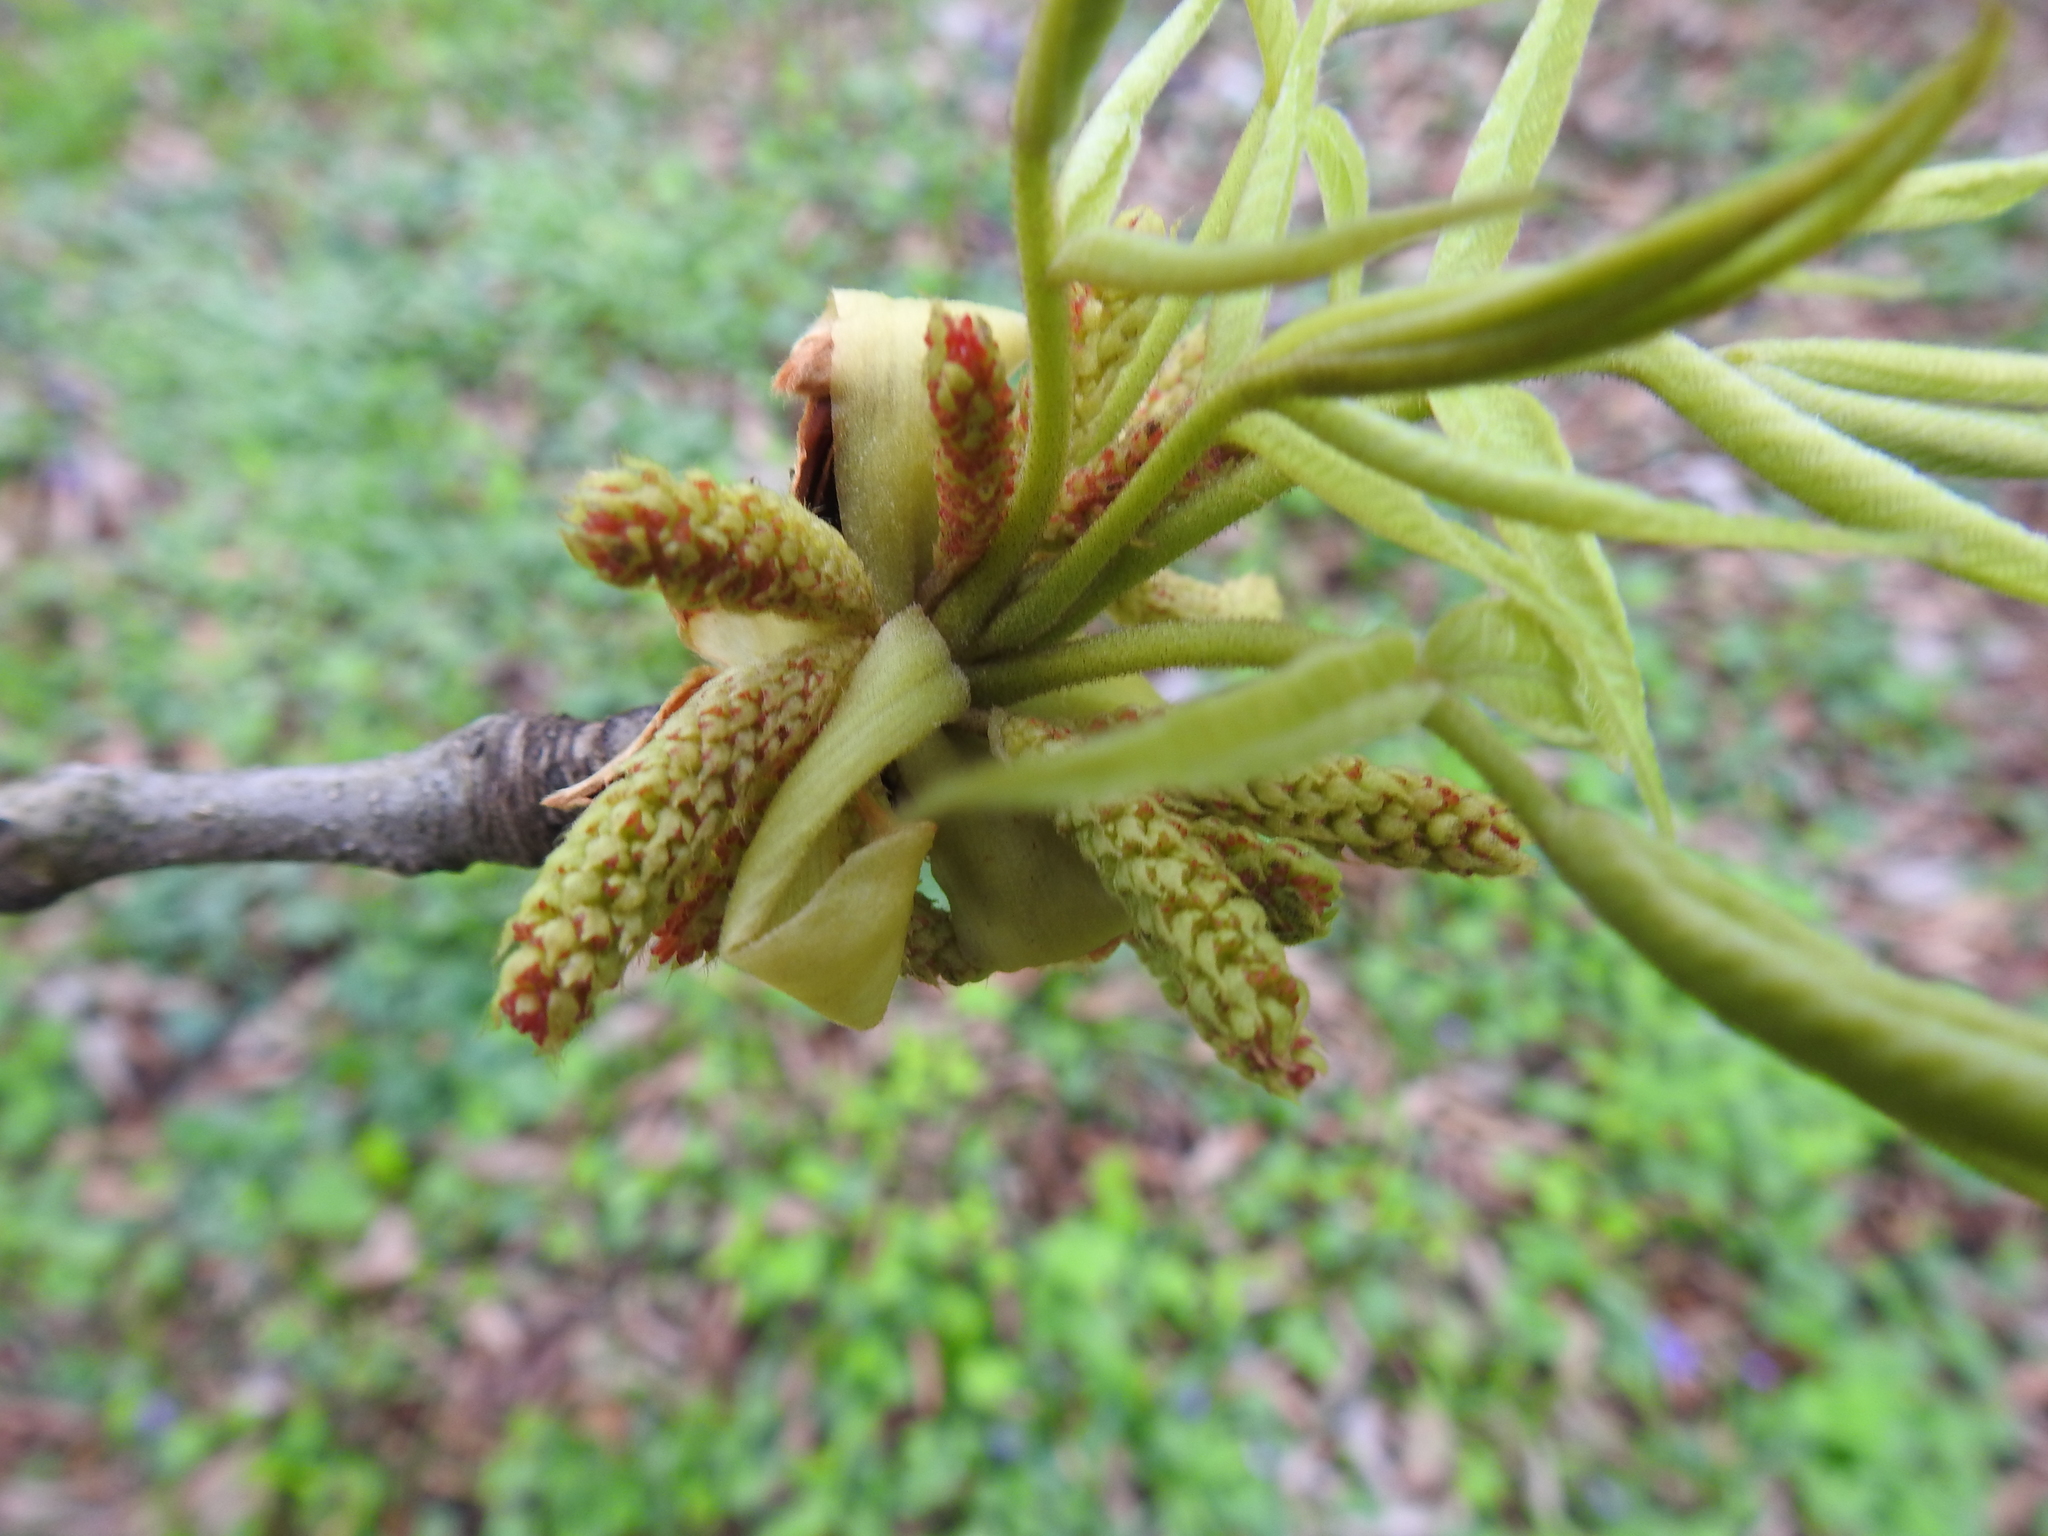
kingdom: Plantae
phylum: Tracheophyta
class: Magnoliopsida
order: Fagales
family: Juglandaceae
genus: Carya
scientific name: Carya laciniosa
